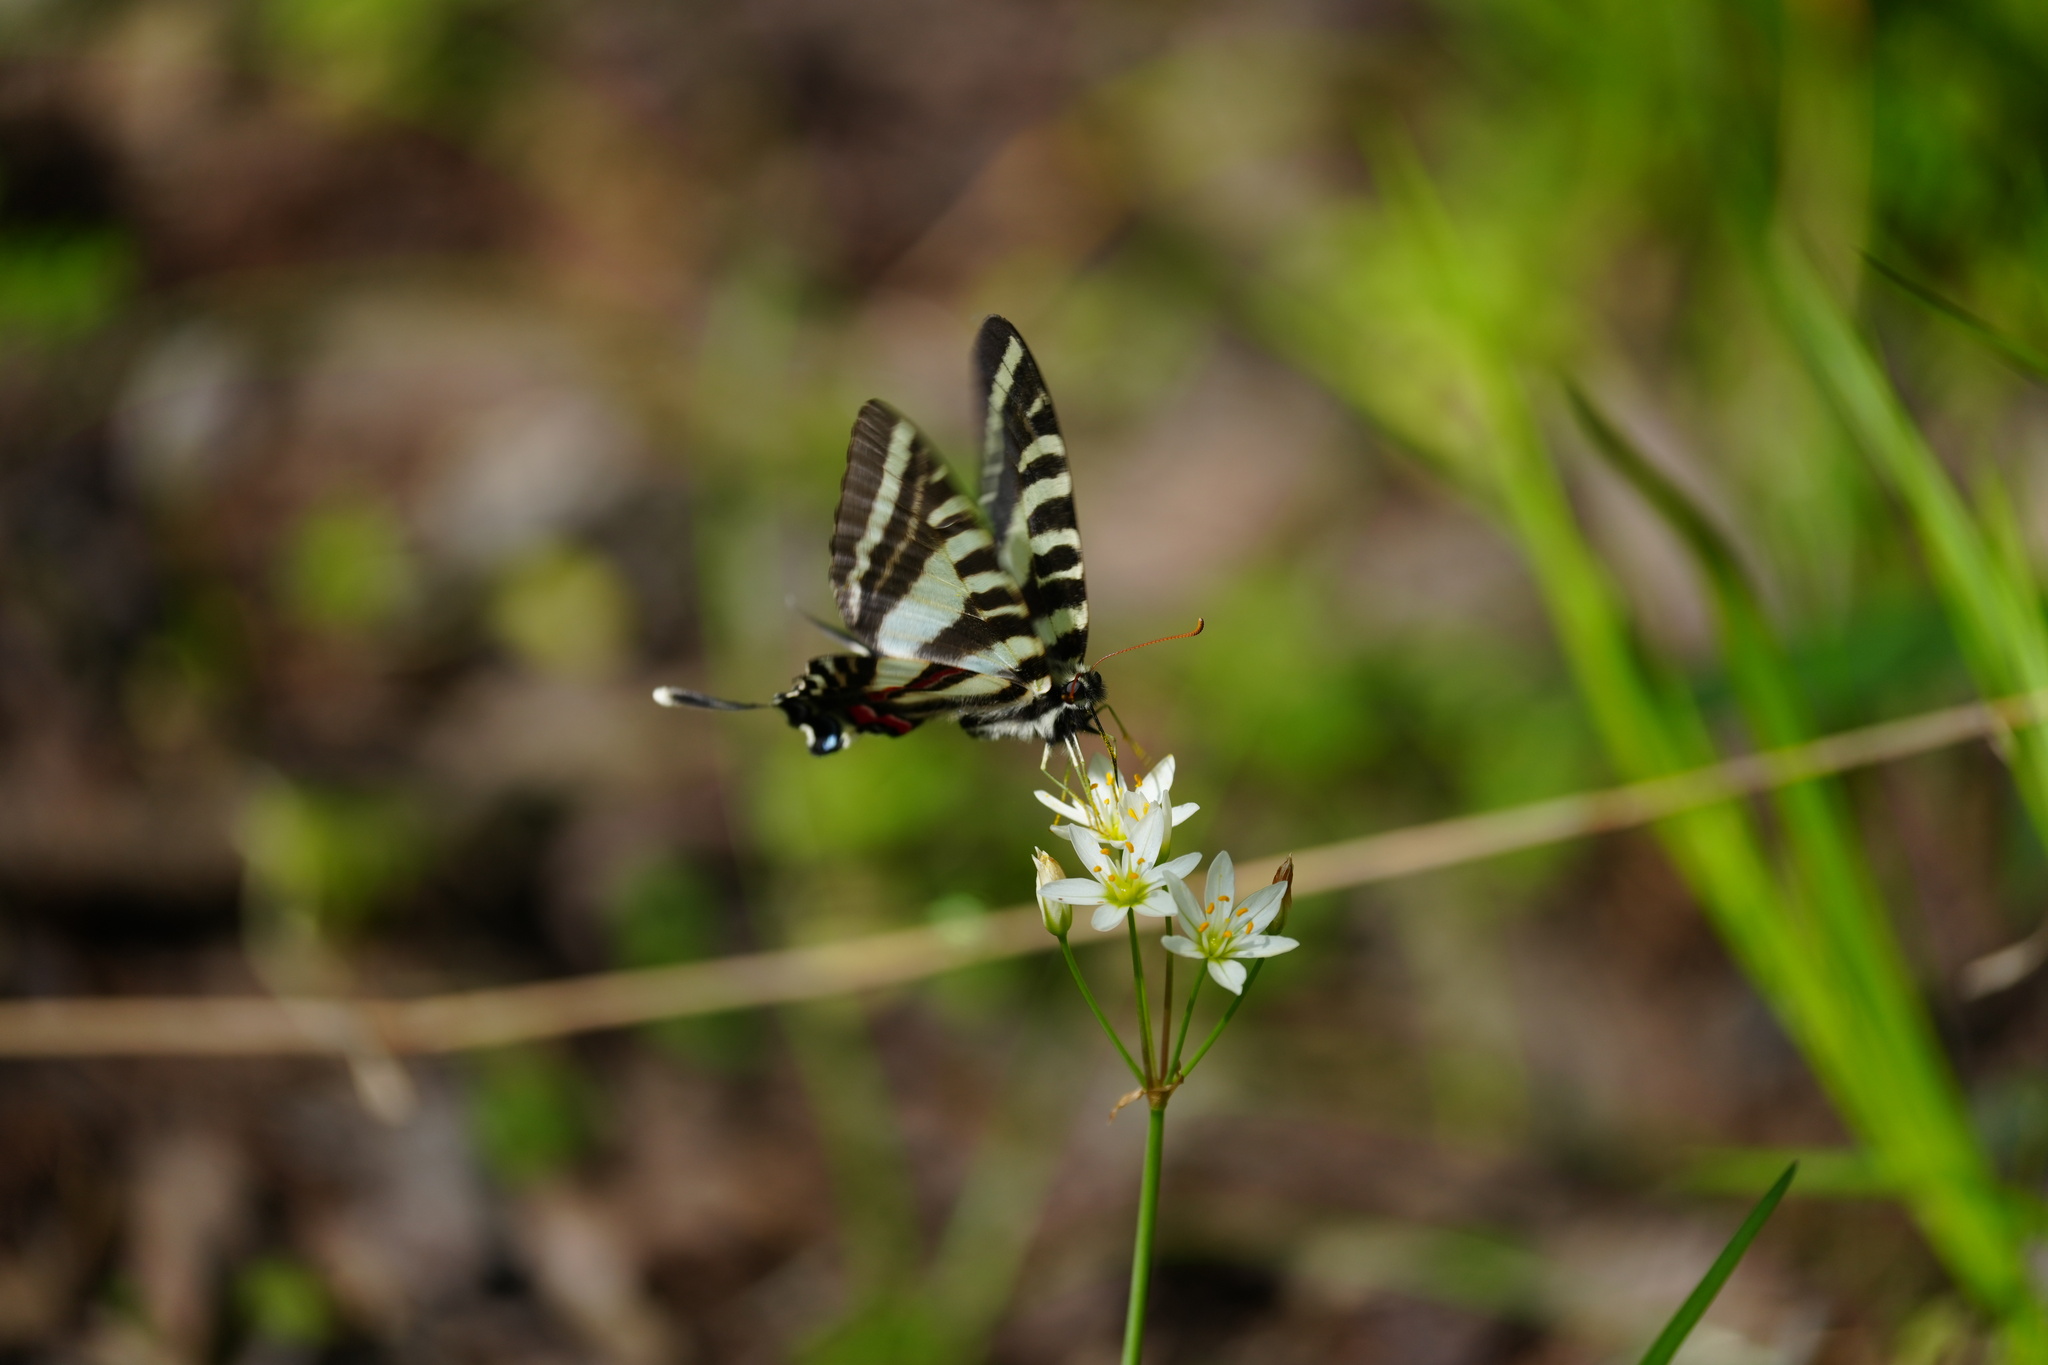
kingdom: Animalia
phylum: Arthropoda
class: Insecta
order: Lepidoptera
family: Papilionidae
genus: Protographium
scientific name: Protographium marcellus
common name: Zebra swallowtail
